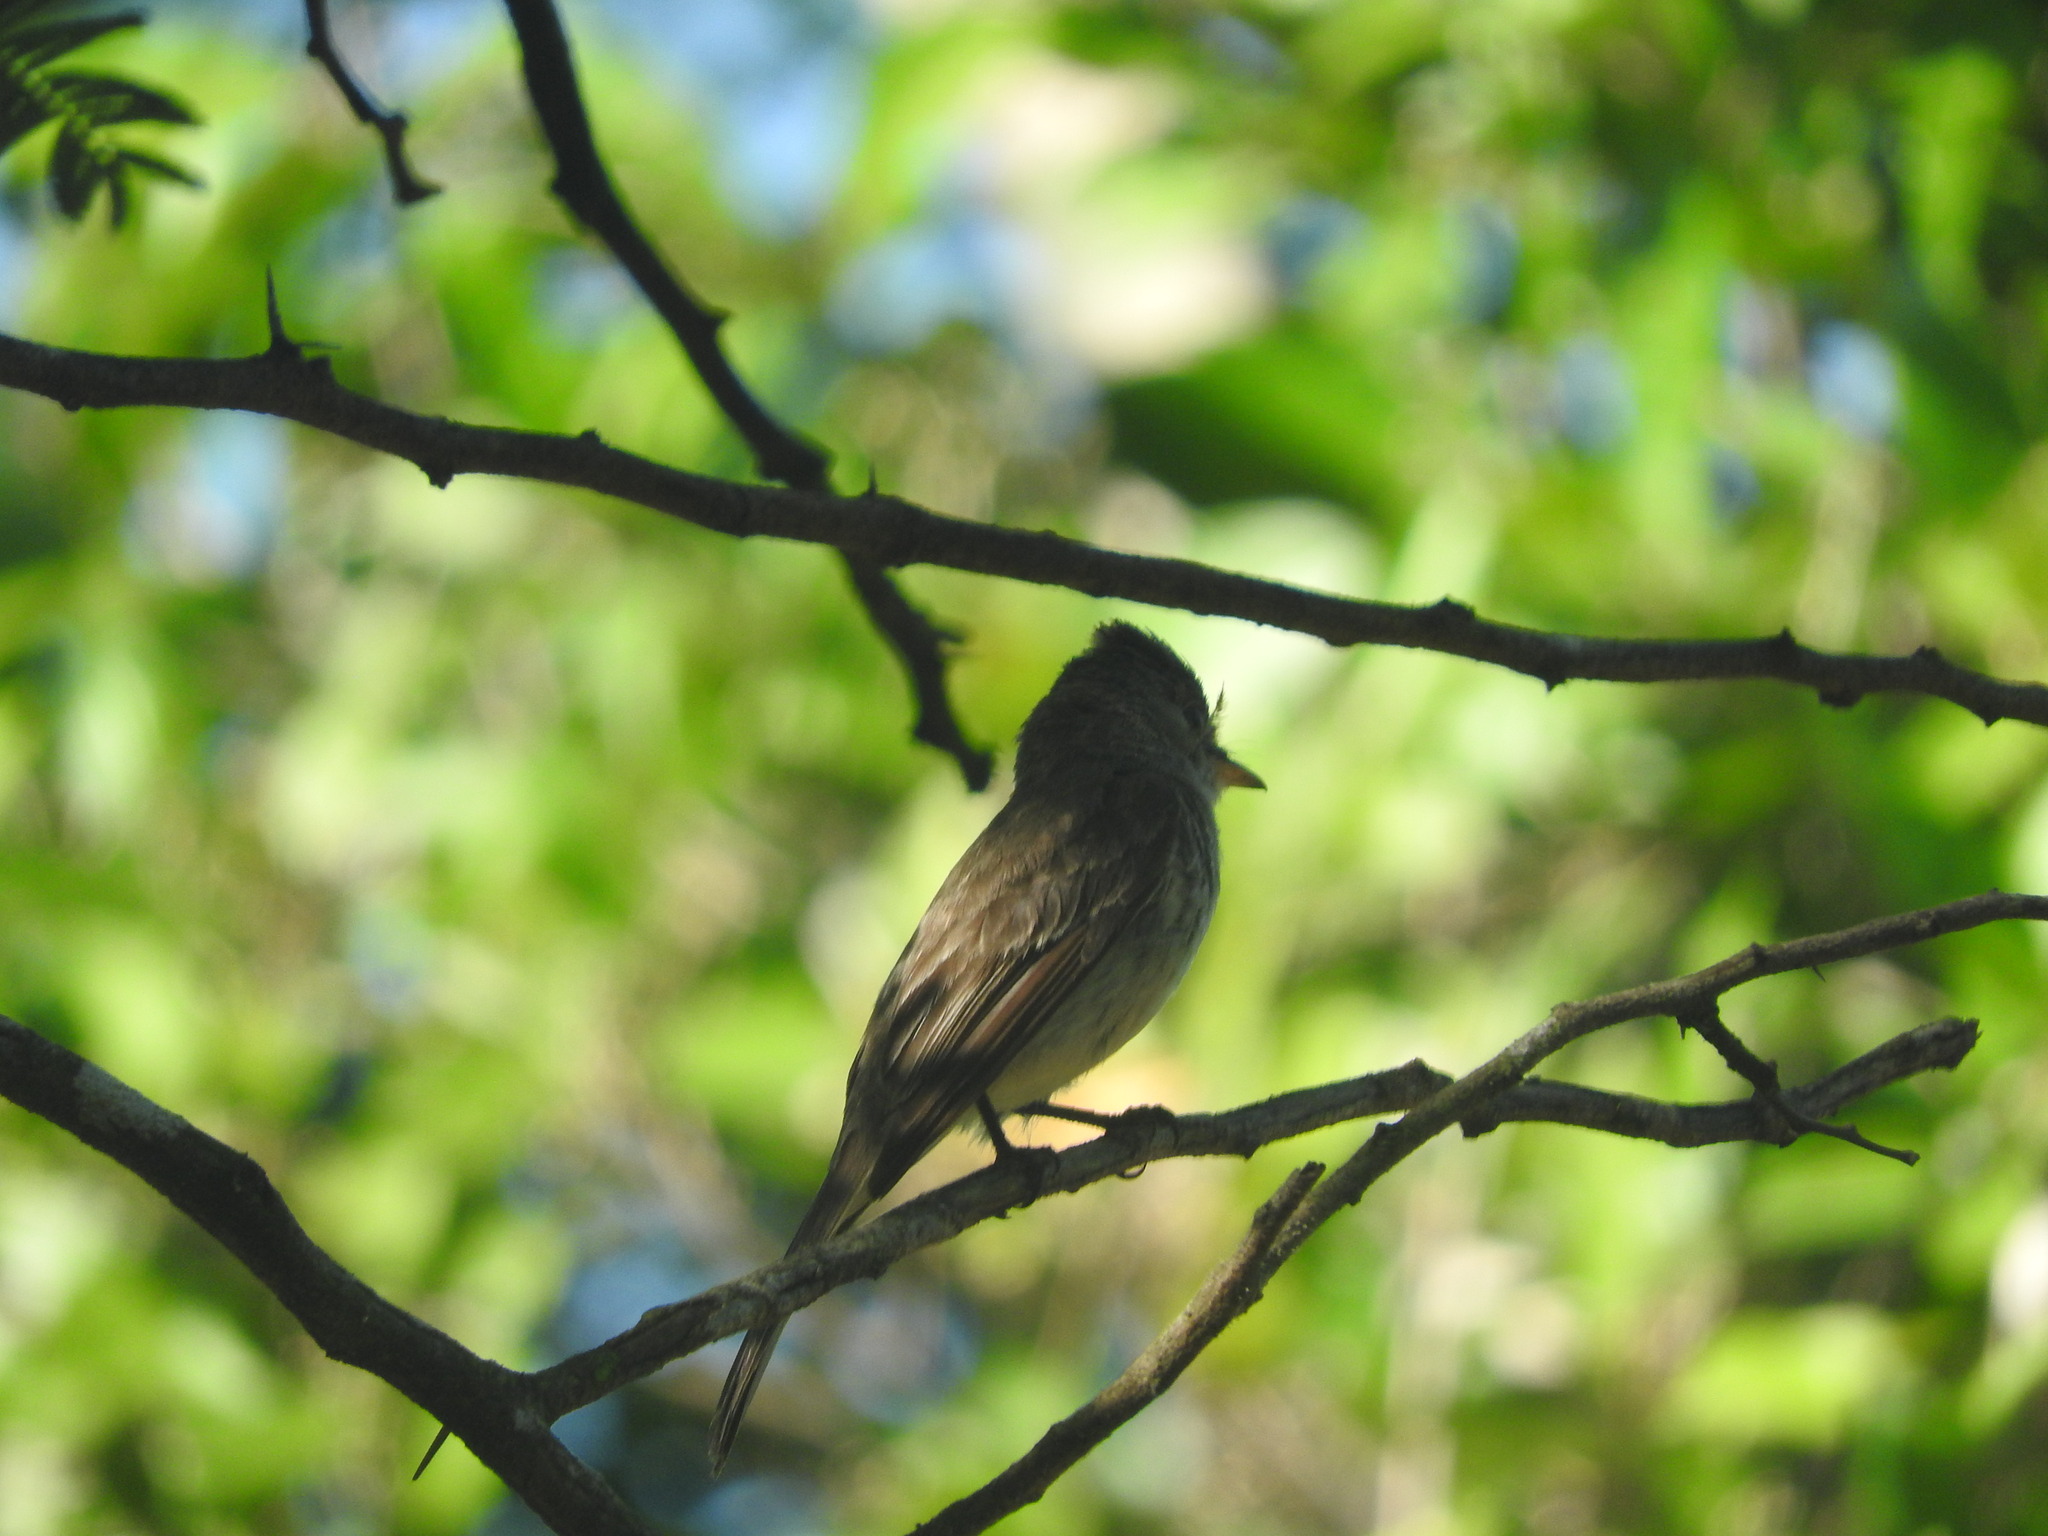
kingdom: Animalia
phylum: Chordata
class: Aves
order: Passeriformes
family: Tyrannidae
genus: Contopus
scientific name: Contopus cinereus
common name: Tropical pewee
